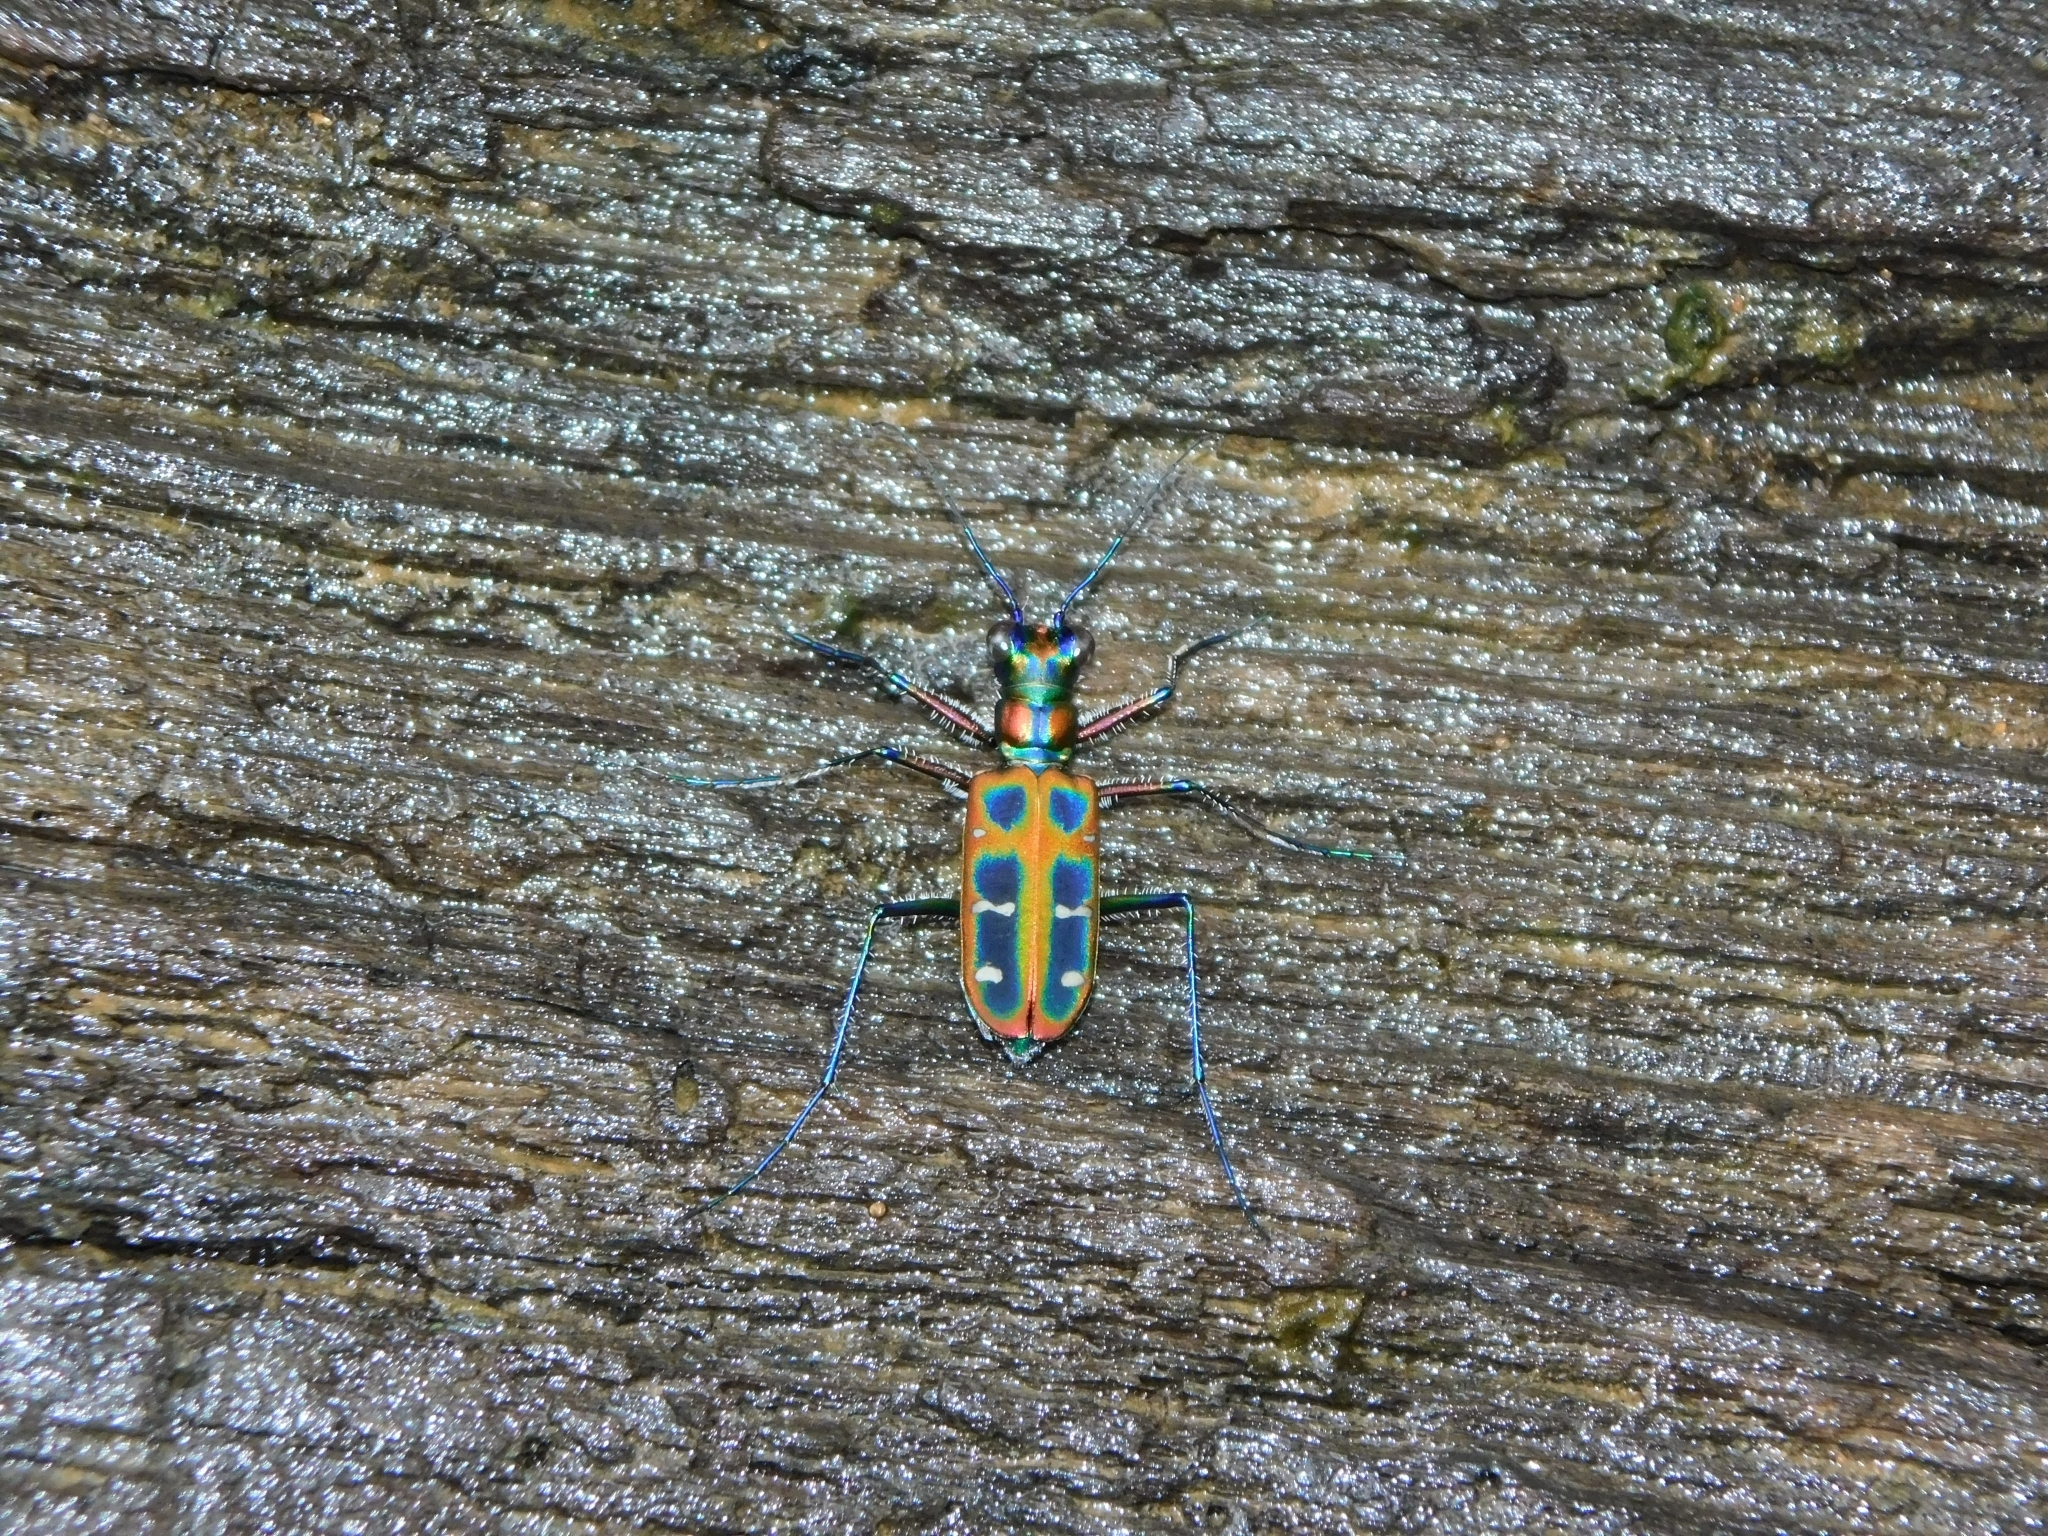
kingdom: Animalia
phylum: Arthropoda
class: Insecta
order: Coleoptera
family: Carabidae
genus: Cicindela
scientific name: Cicindela barmanica
